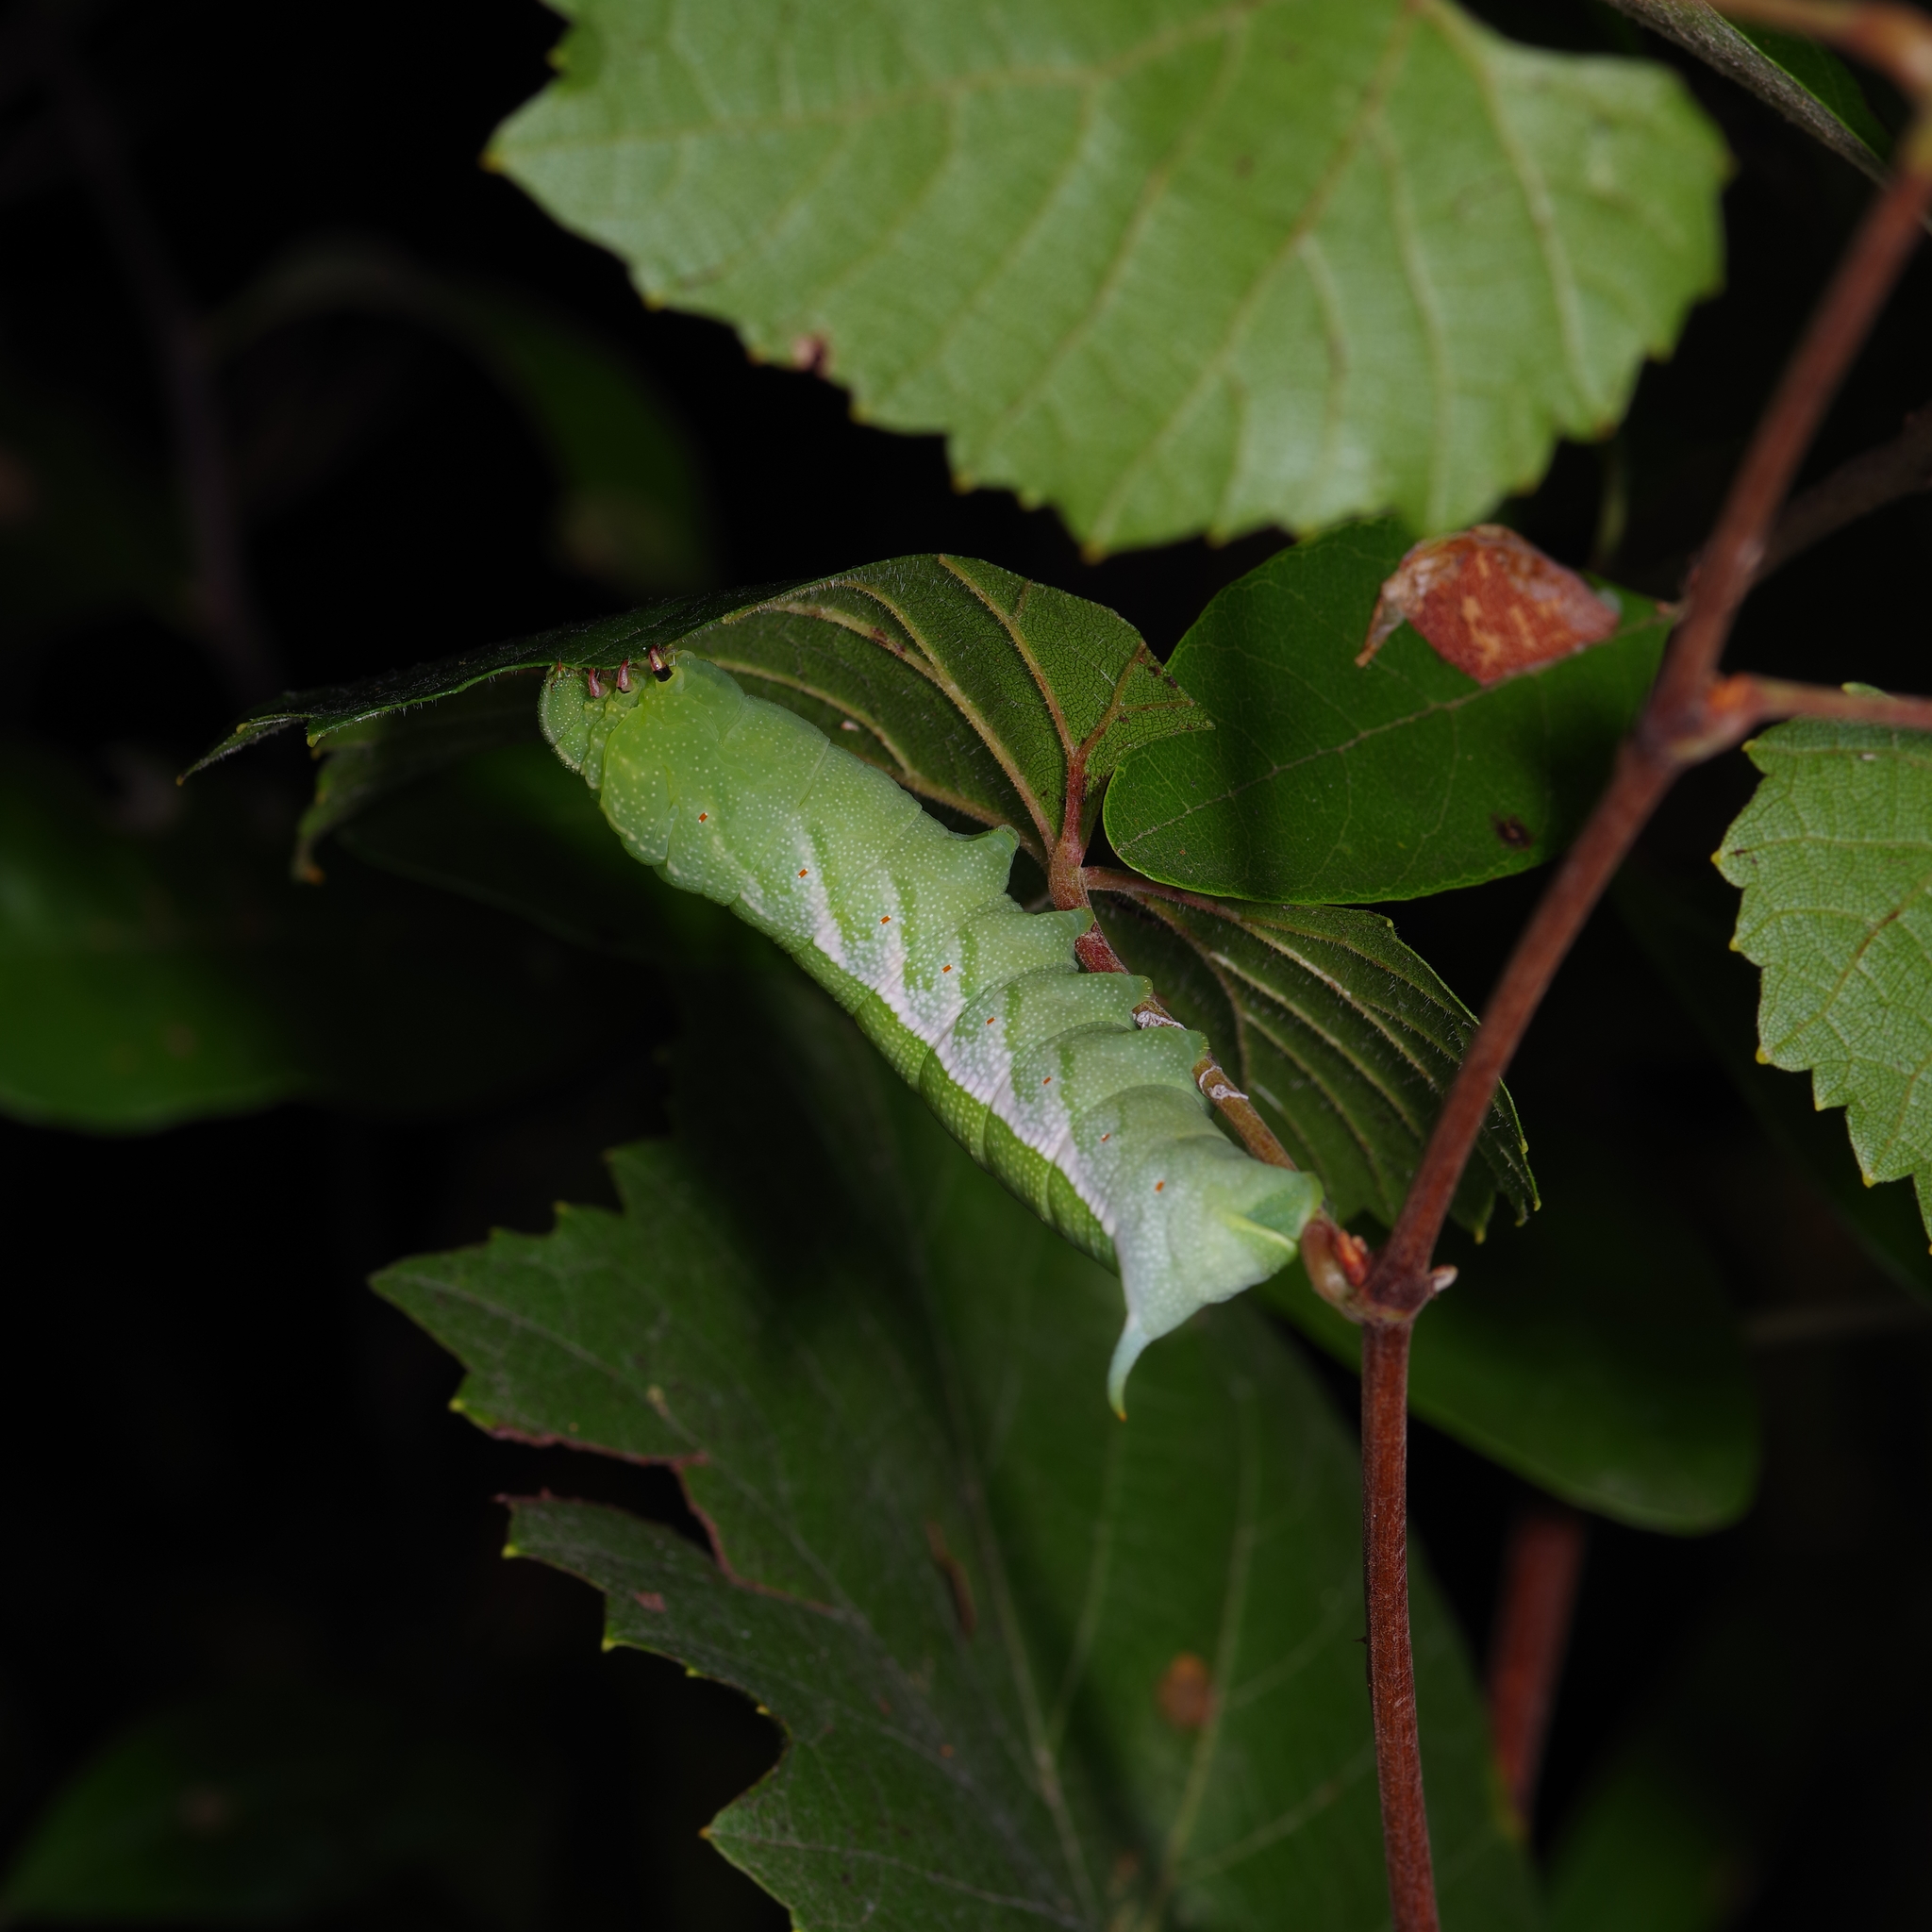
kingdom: Animalia
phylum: Arthropoda
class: Insecta
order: Lepidoptera
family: Sphingidae
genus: Darapsa
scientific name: Darapsa myron
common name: Hog sphinx
